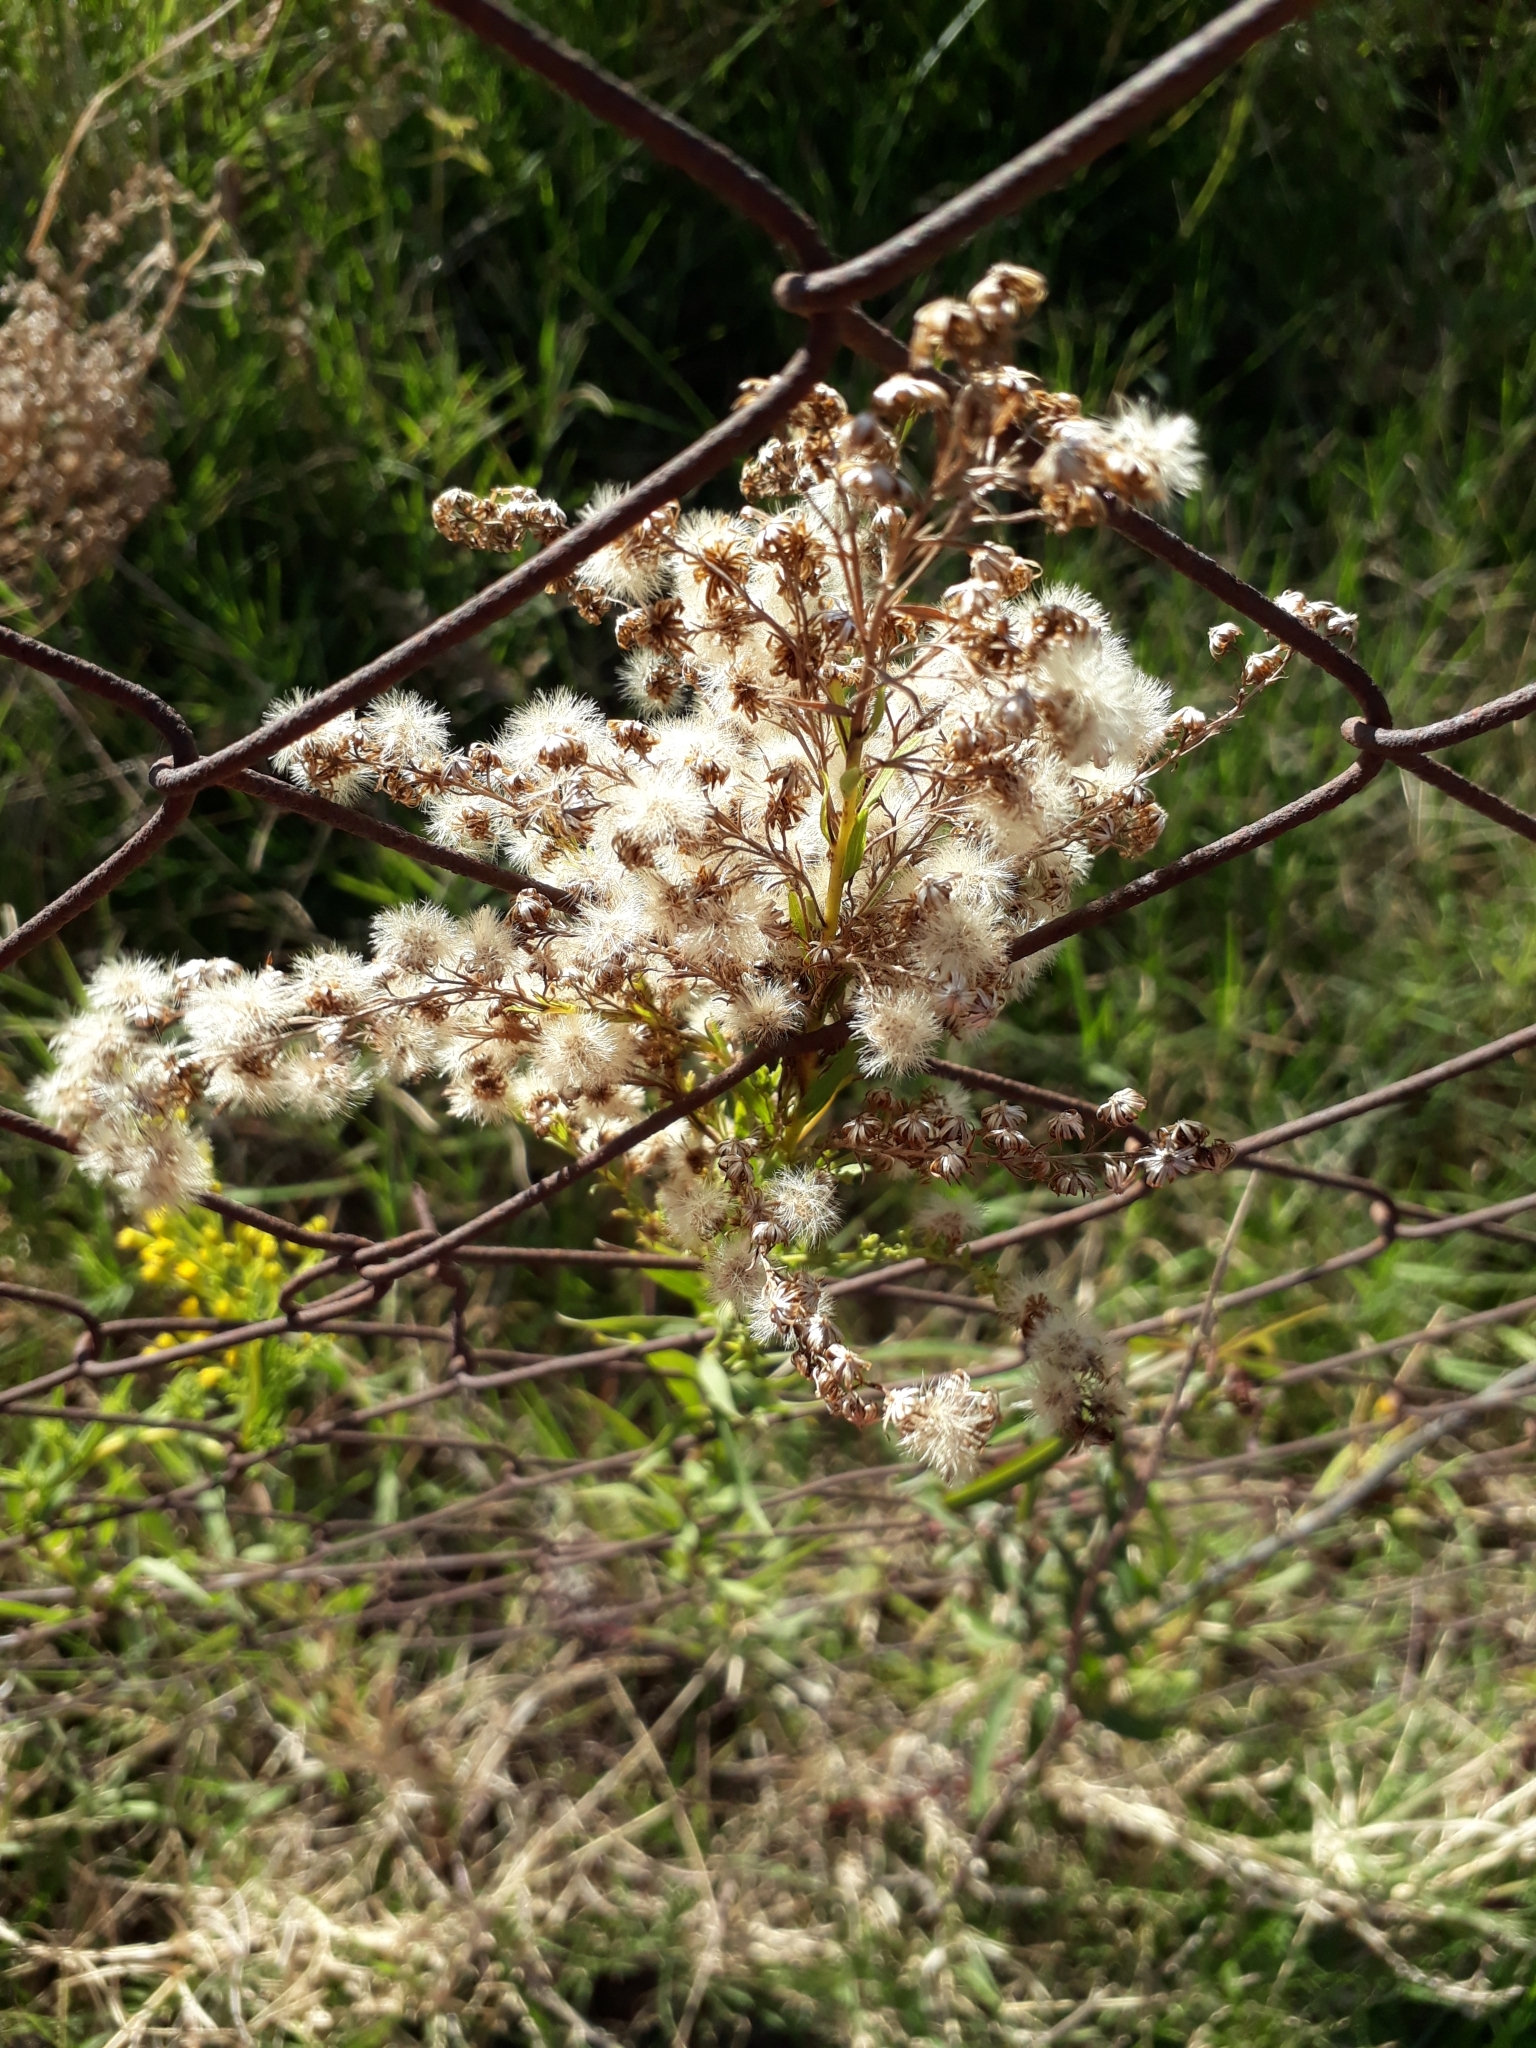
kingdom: Plantae
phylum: Tracheophyta
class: Magnoliopsida
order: Asterales
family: Asteraceae
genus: Solidago
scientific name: Solidago chilensis
